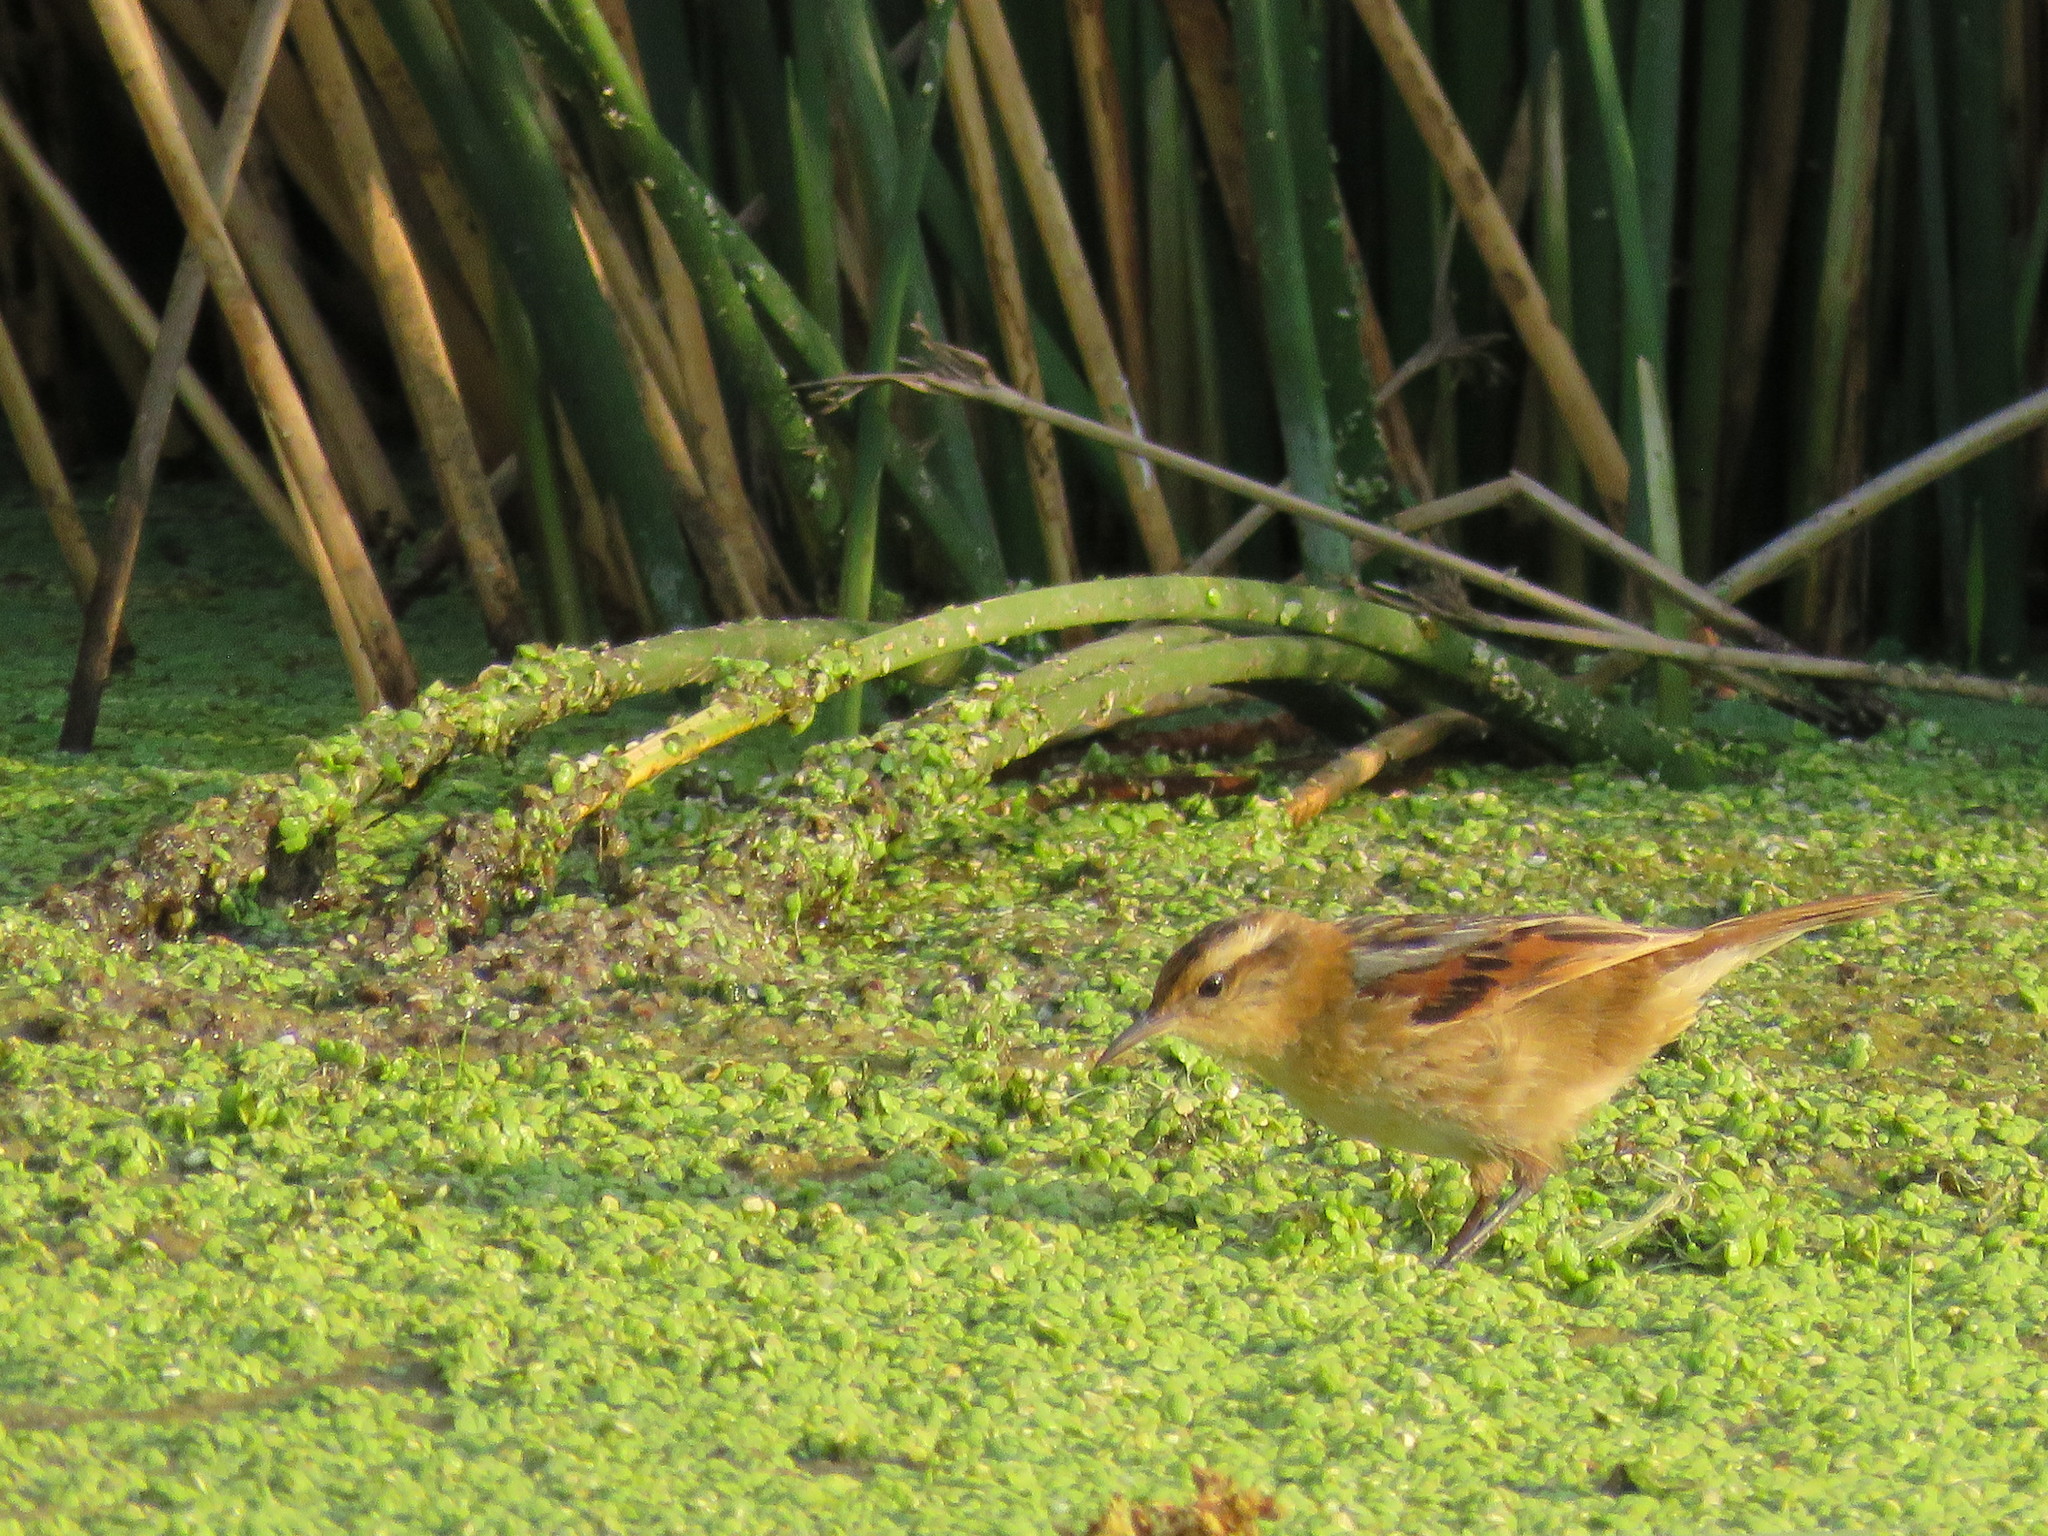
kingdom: Animalia
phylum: Chordata
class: Aves
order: Passeriformes
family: Furnariidae
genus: Phleocryptes
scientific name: Phleocryptes melanops
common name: Wren-like rushbird
